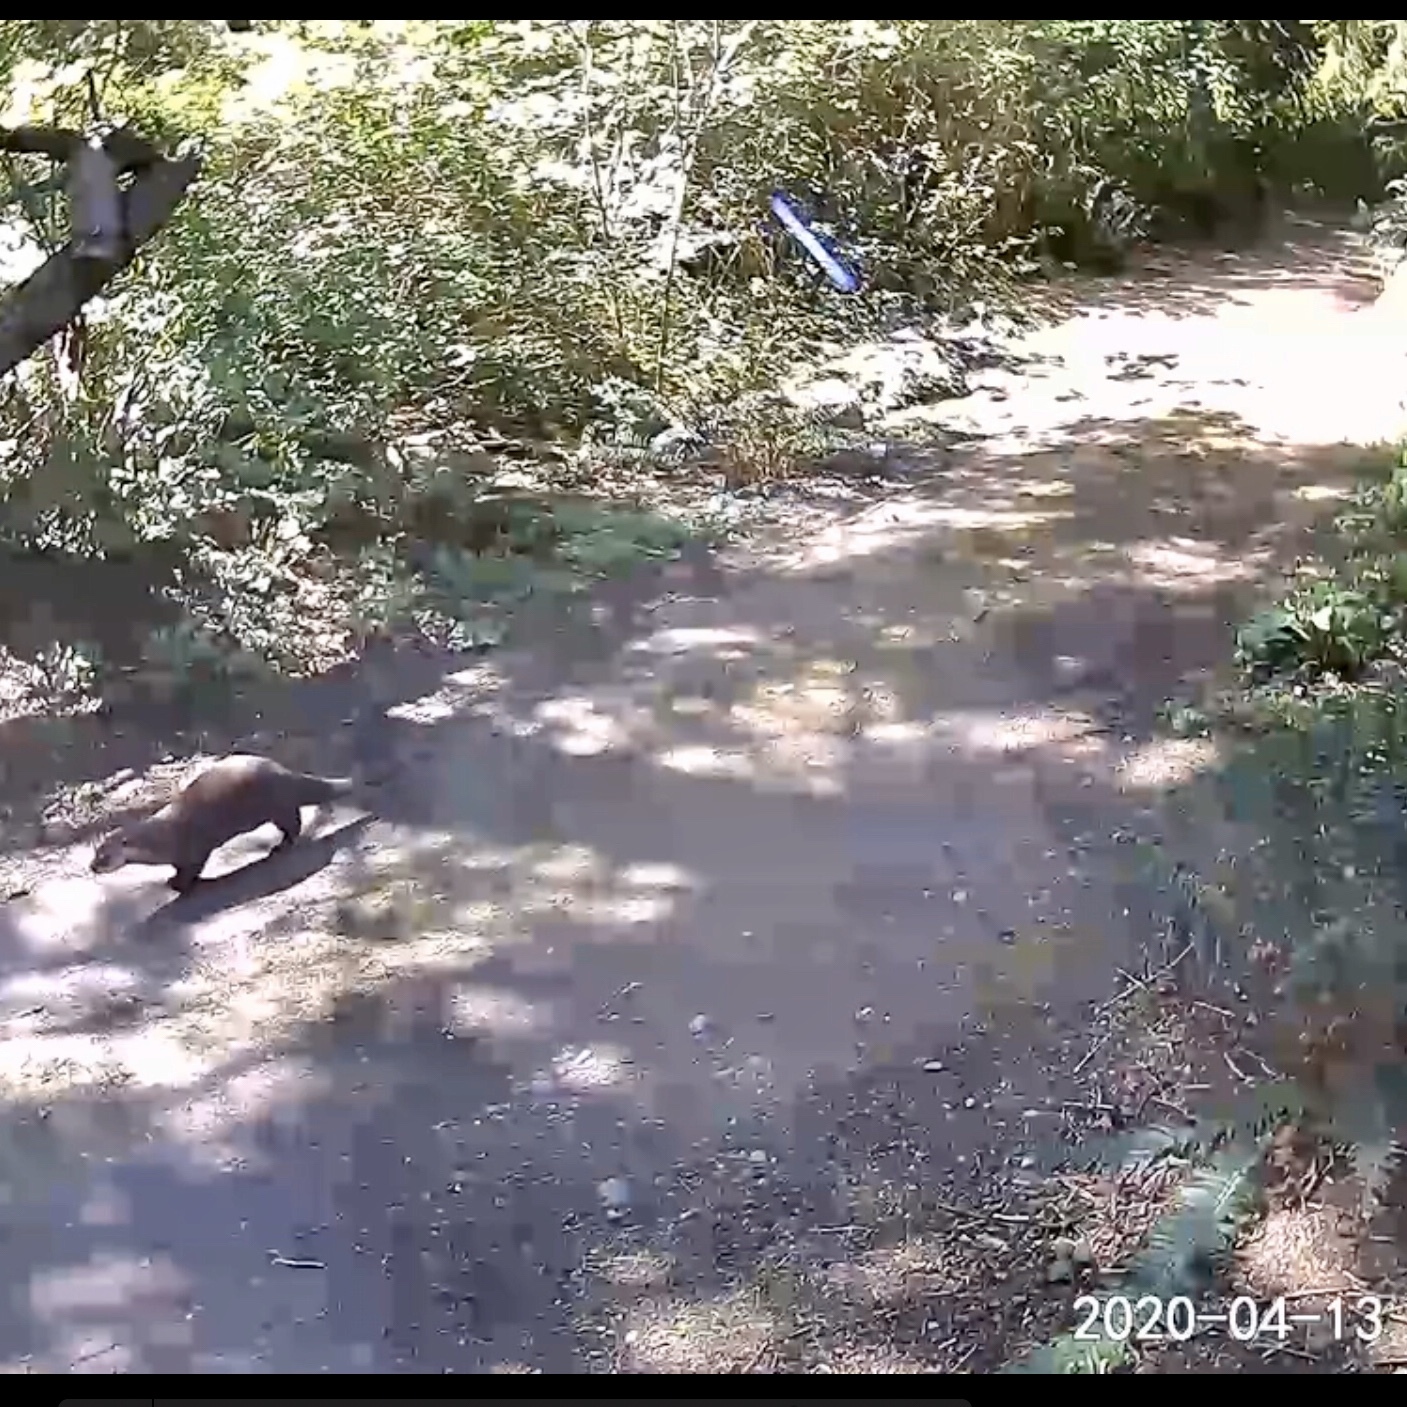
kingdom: Animalia
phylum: Chordata
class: Mammalia
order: Carnivora
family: Mustelidae
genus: Lontra
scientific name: Lontra canadensis
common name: North american river otter
